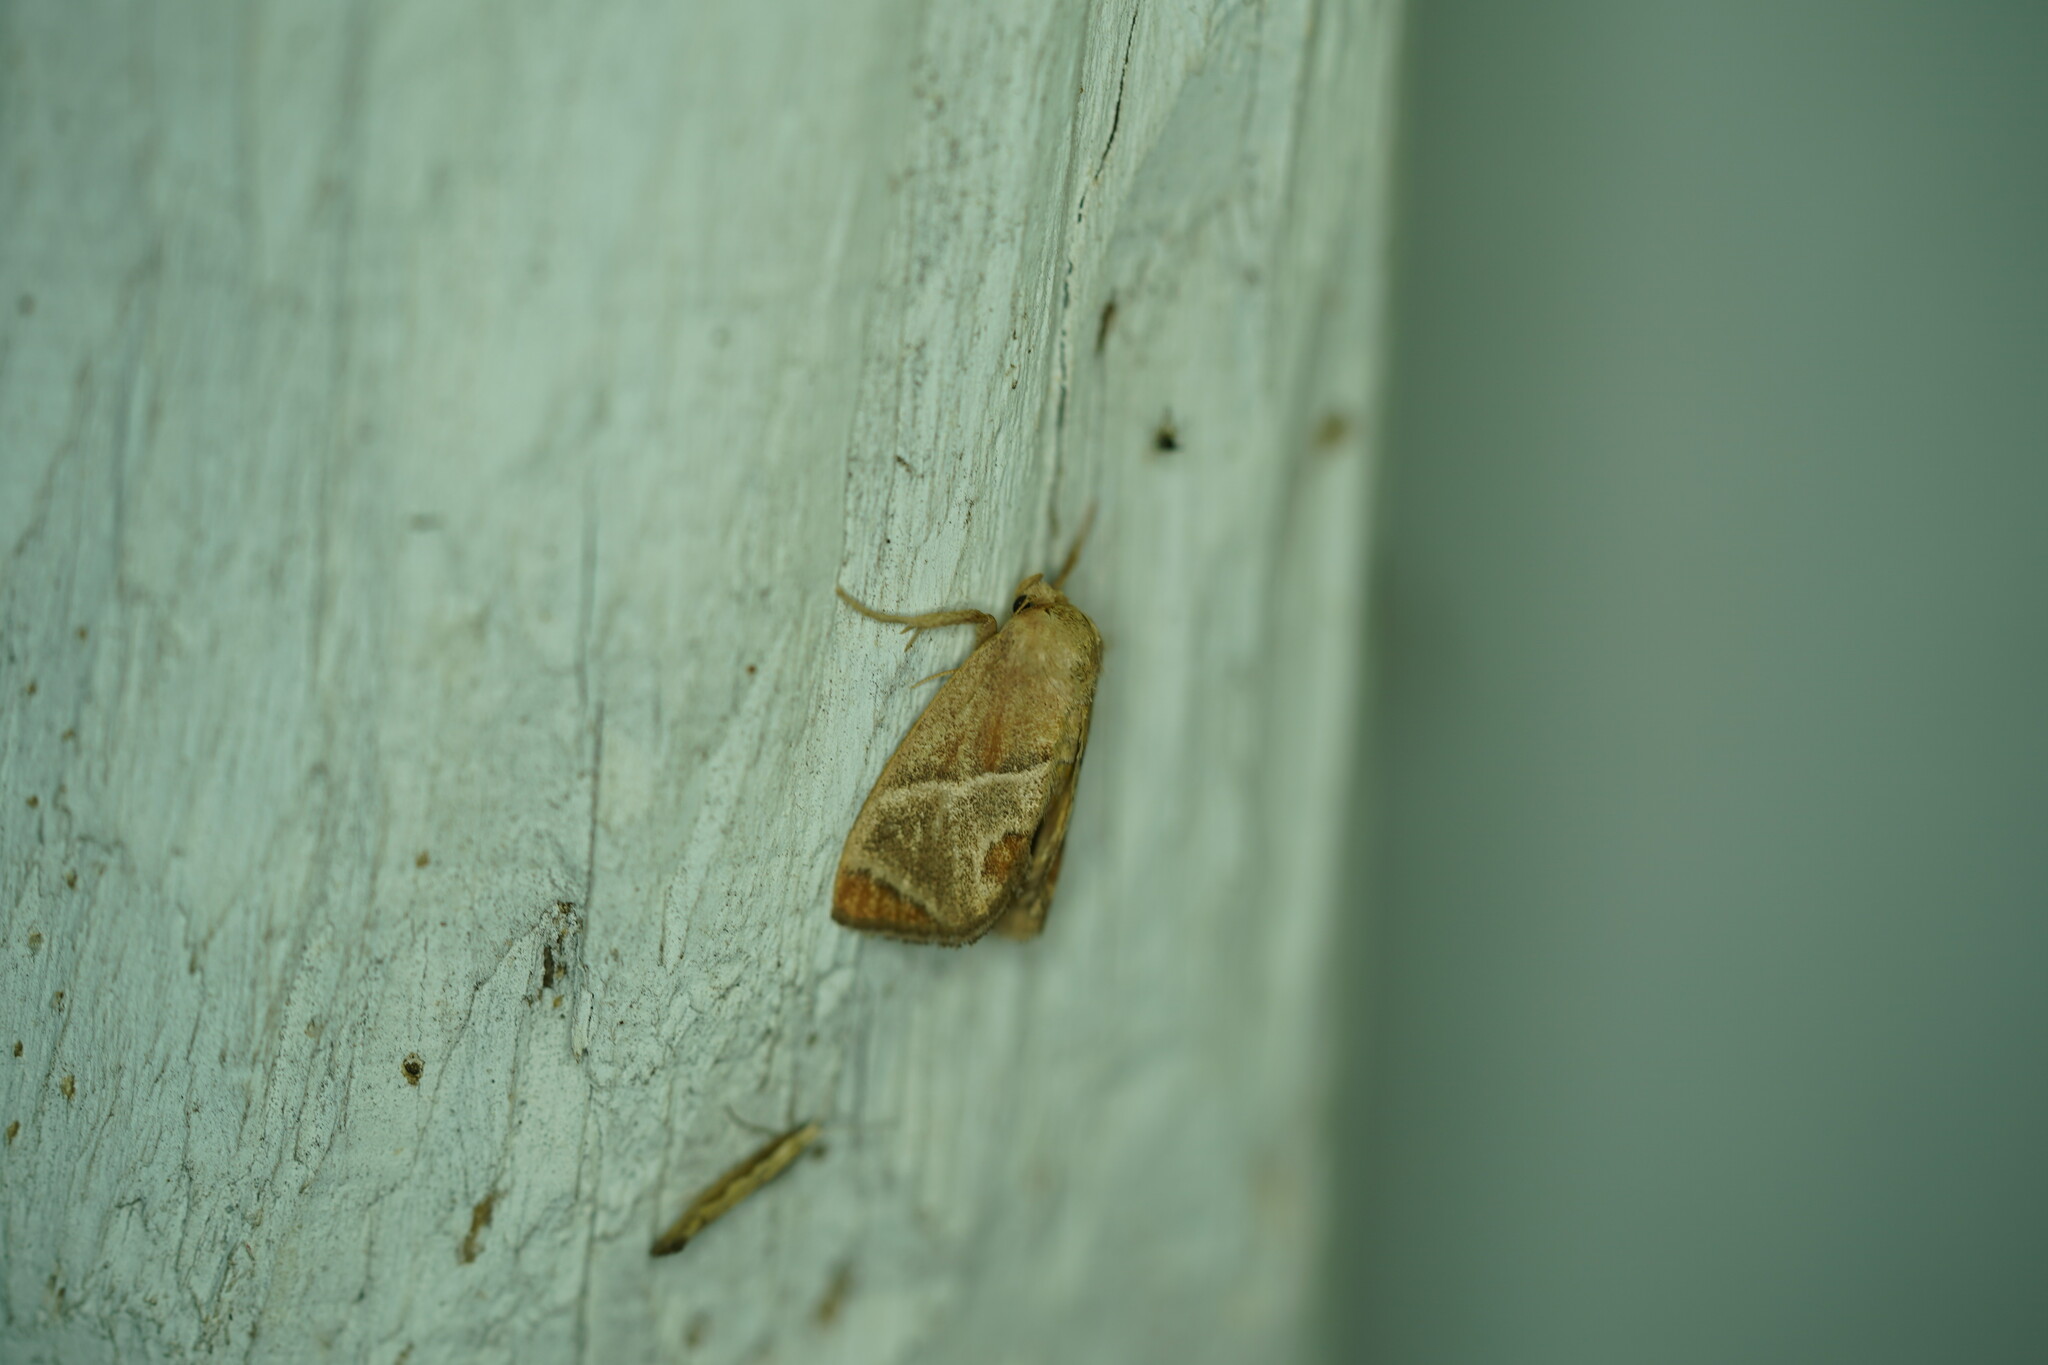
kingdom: Animalia
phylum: Arthropoda
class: Insecta
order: Lepidoptera
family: Limacodidae
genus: Apoda
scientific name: Apoda biguttata
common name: Shagreened slug moth
